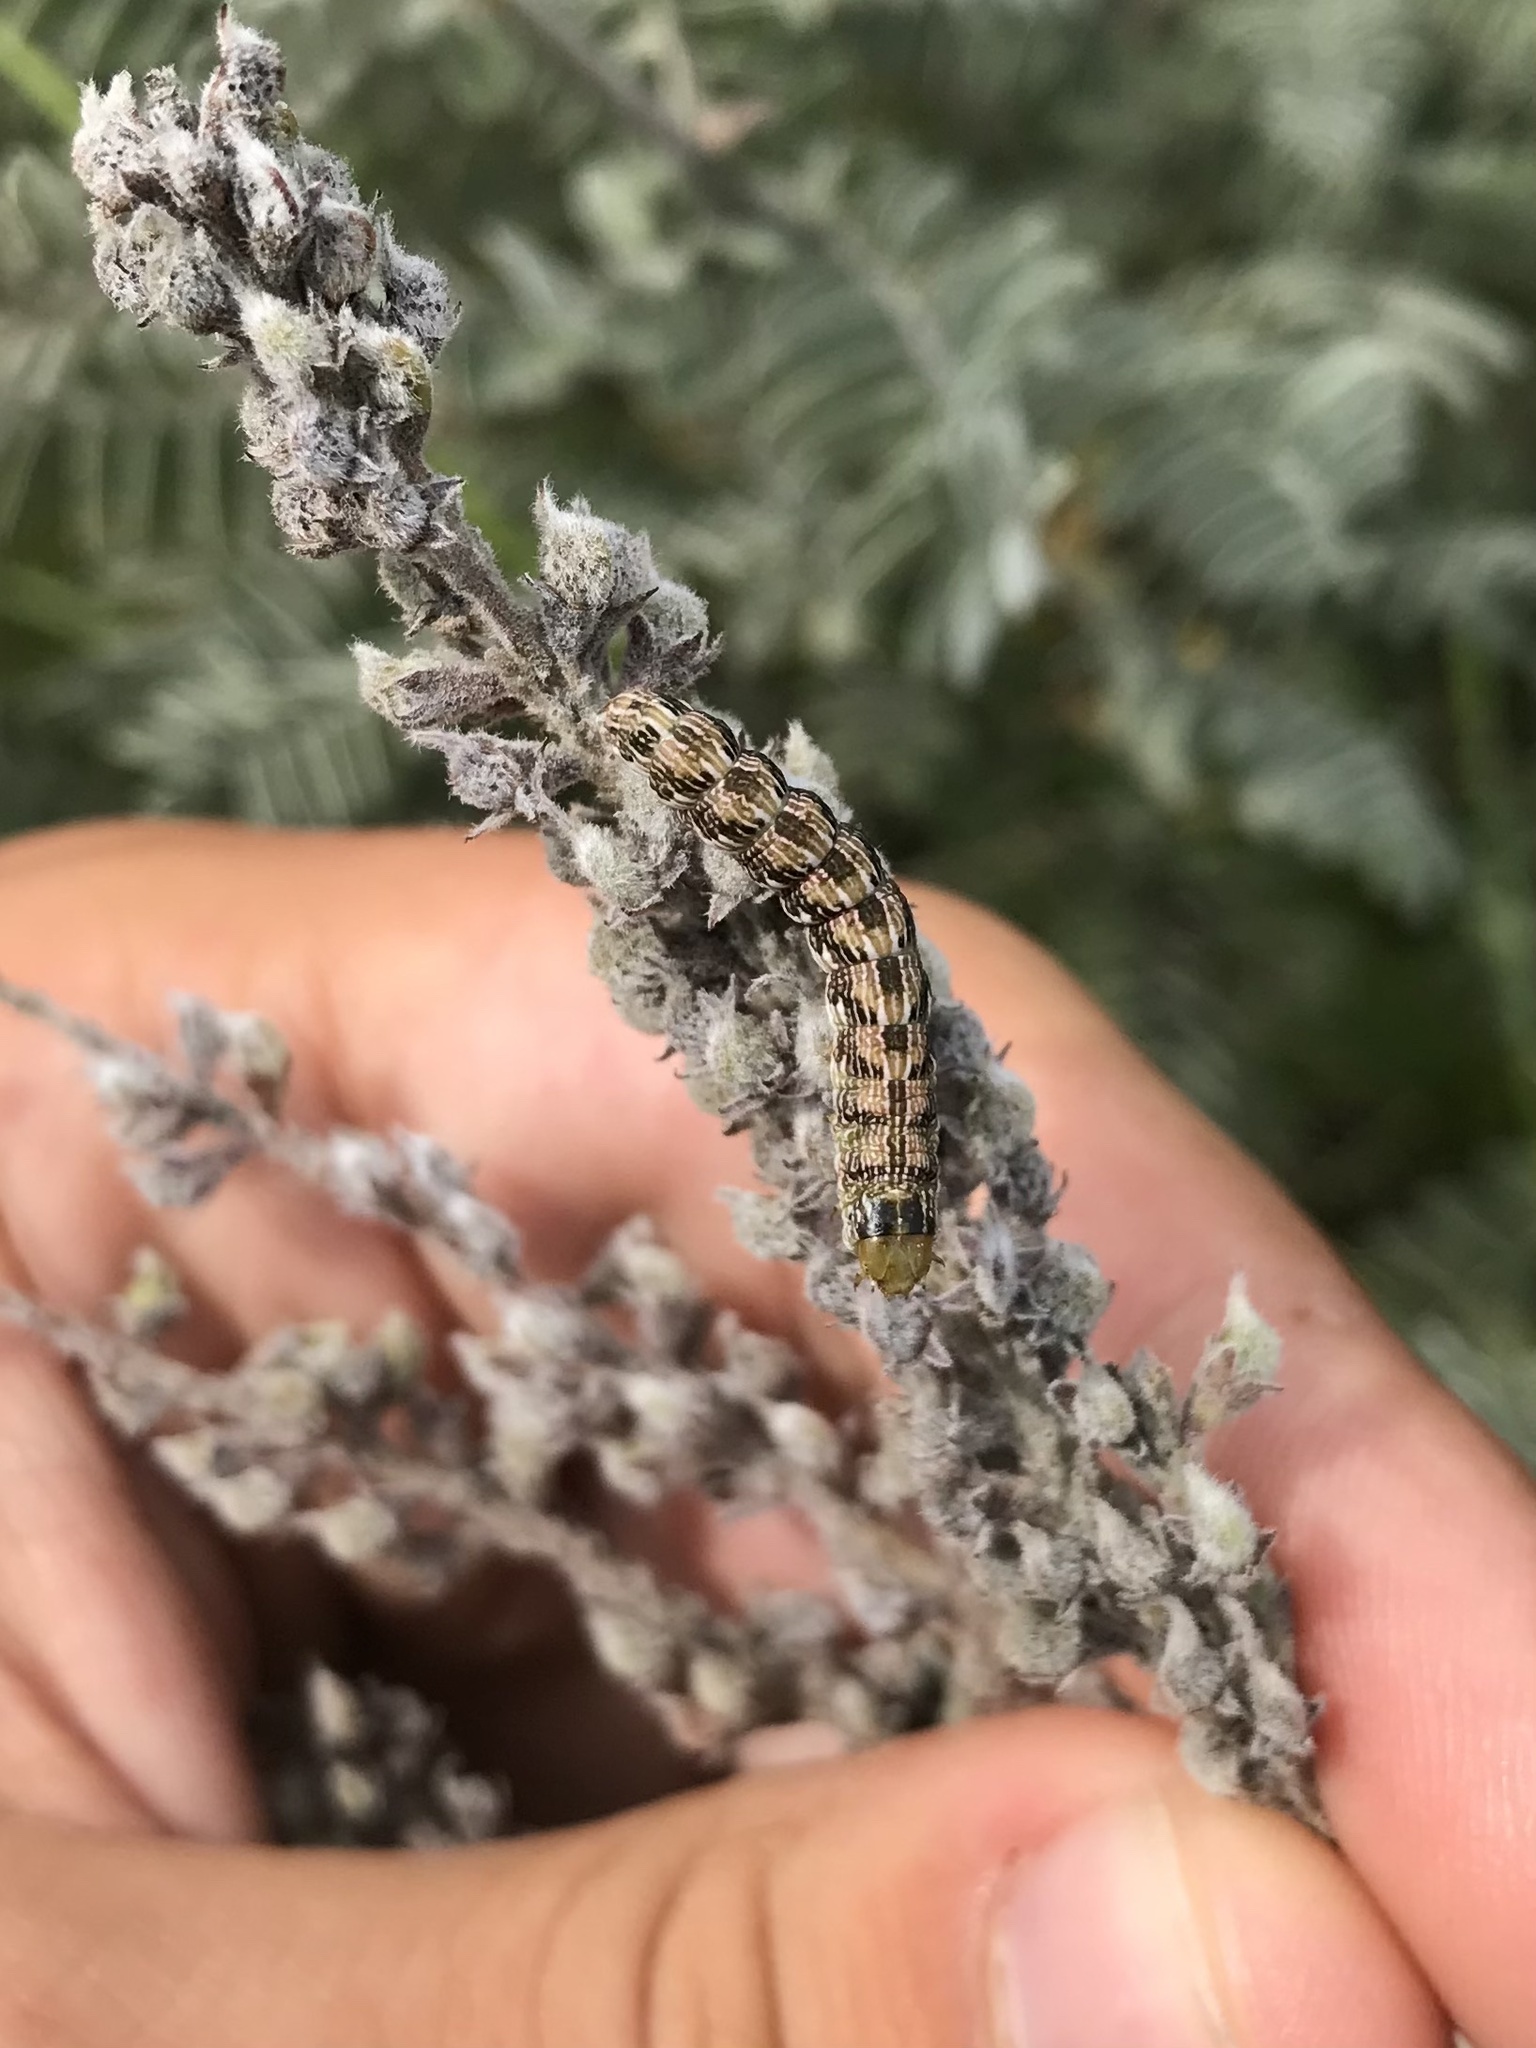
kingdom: Animalia
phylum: Arthropoda
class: Insecta
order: Lepidoptera
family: Noctuidae
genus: Schinia
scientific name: Schinia lucens
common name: Leadplant flower moth
